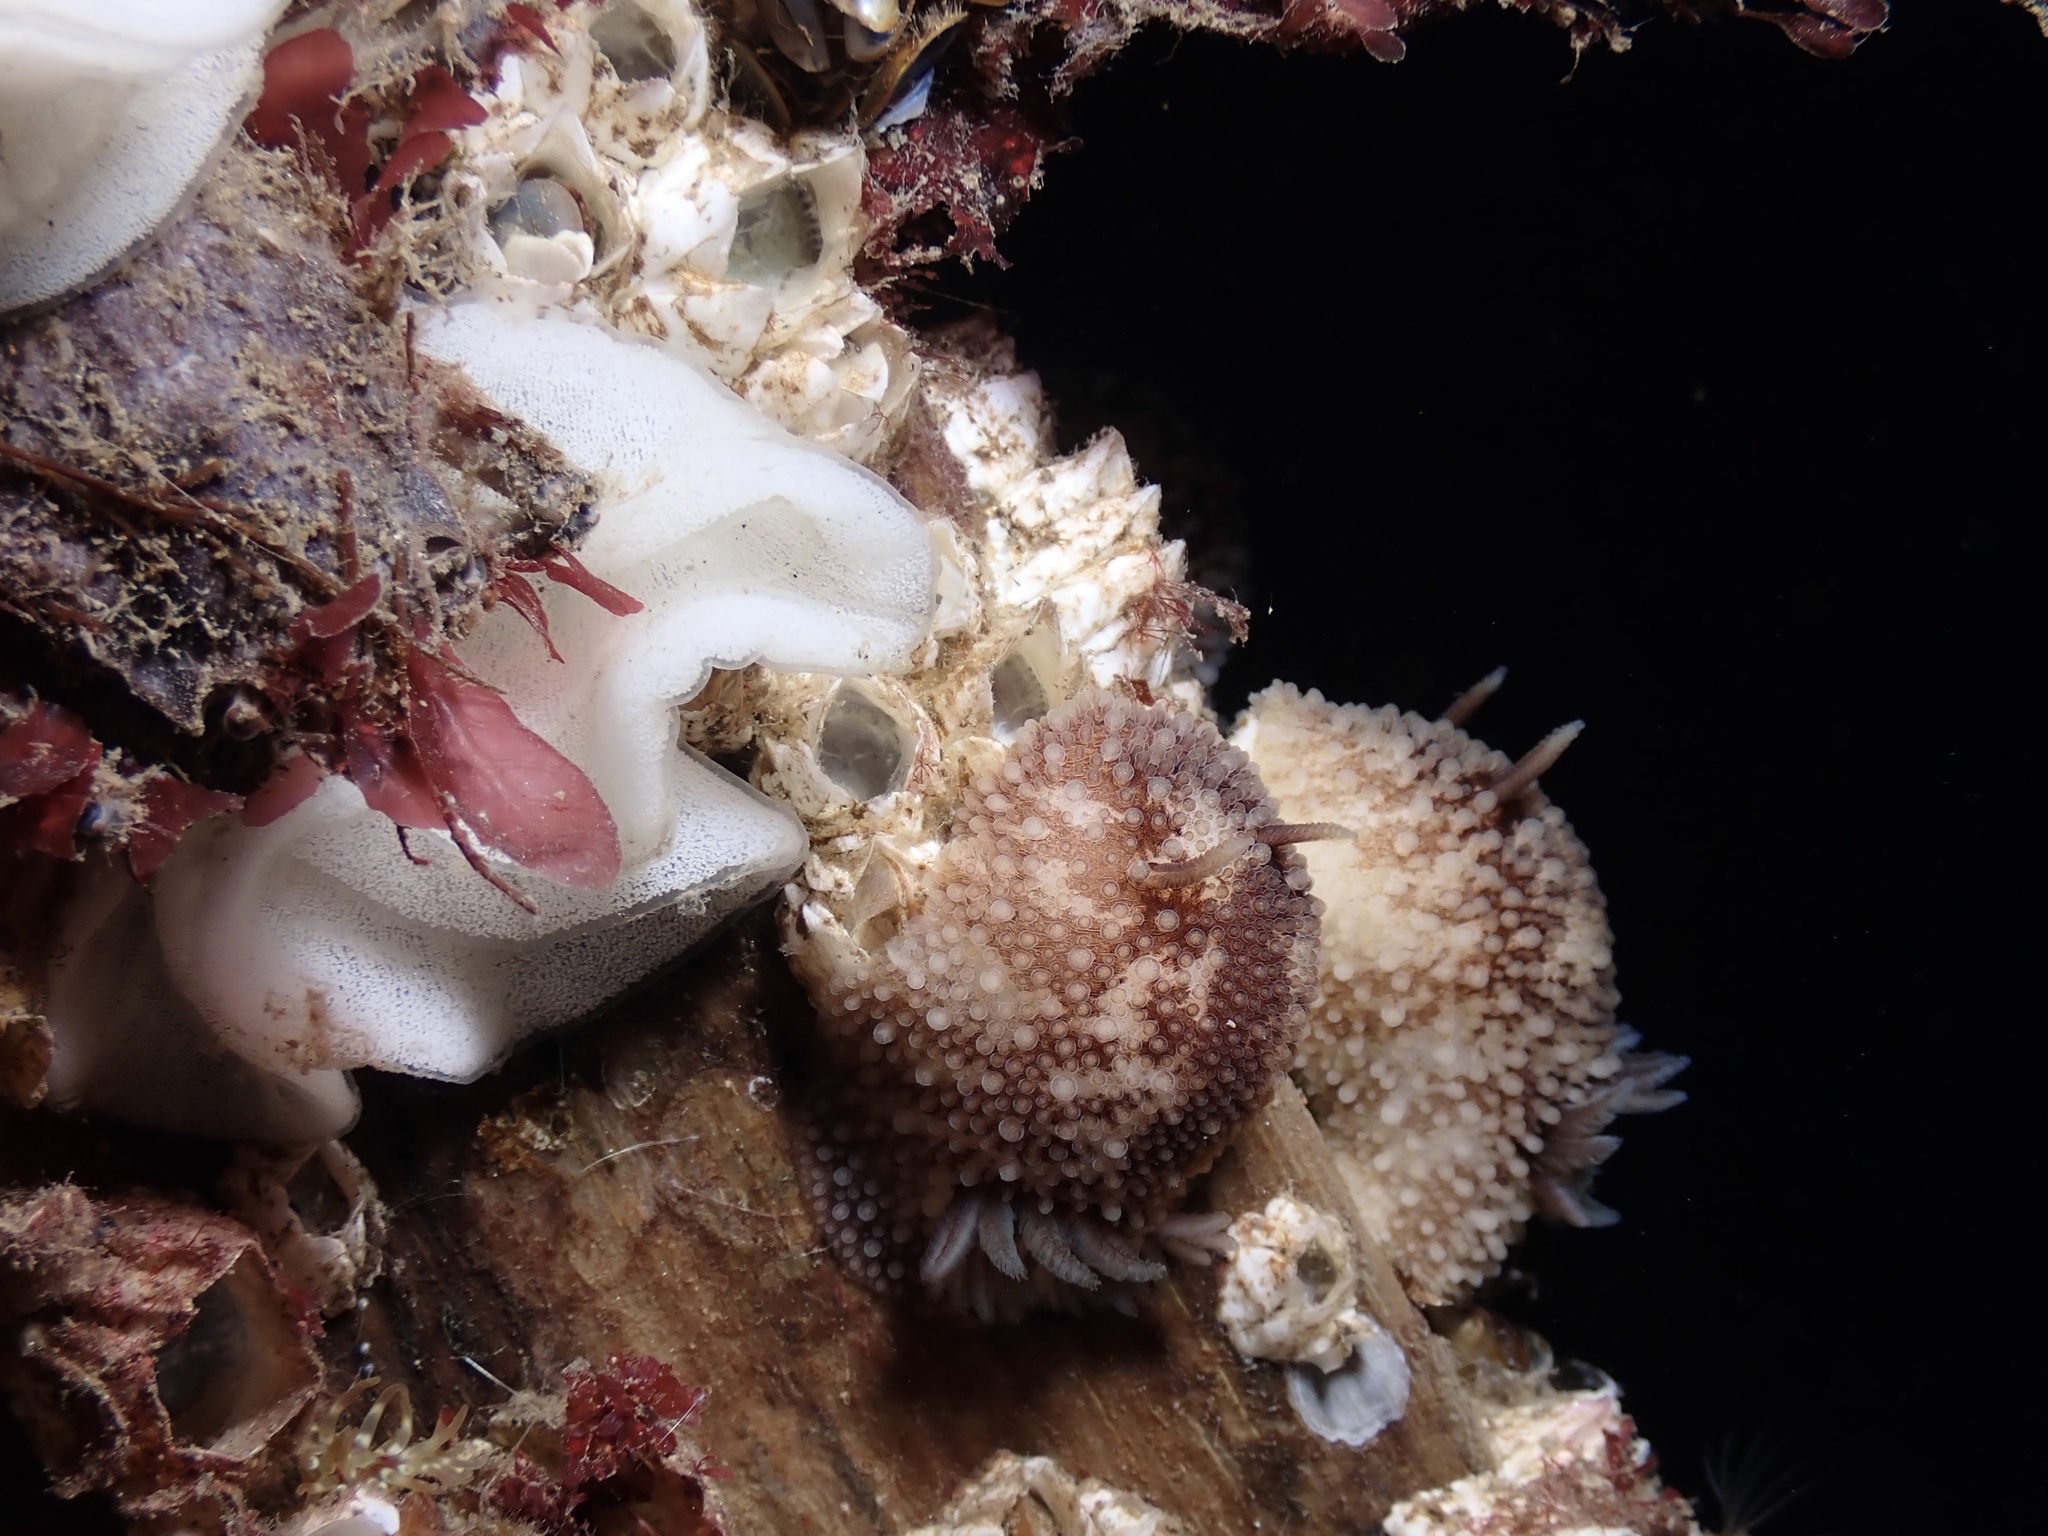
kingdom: Animalia
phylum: Mollusca
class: Gastropoda
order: Nudibranchia
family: Onchidorididae
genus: Onchidoris
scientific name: Onchidoris bilamellata
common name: Barnacle-eating onchidoris
